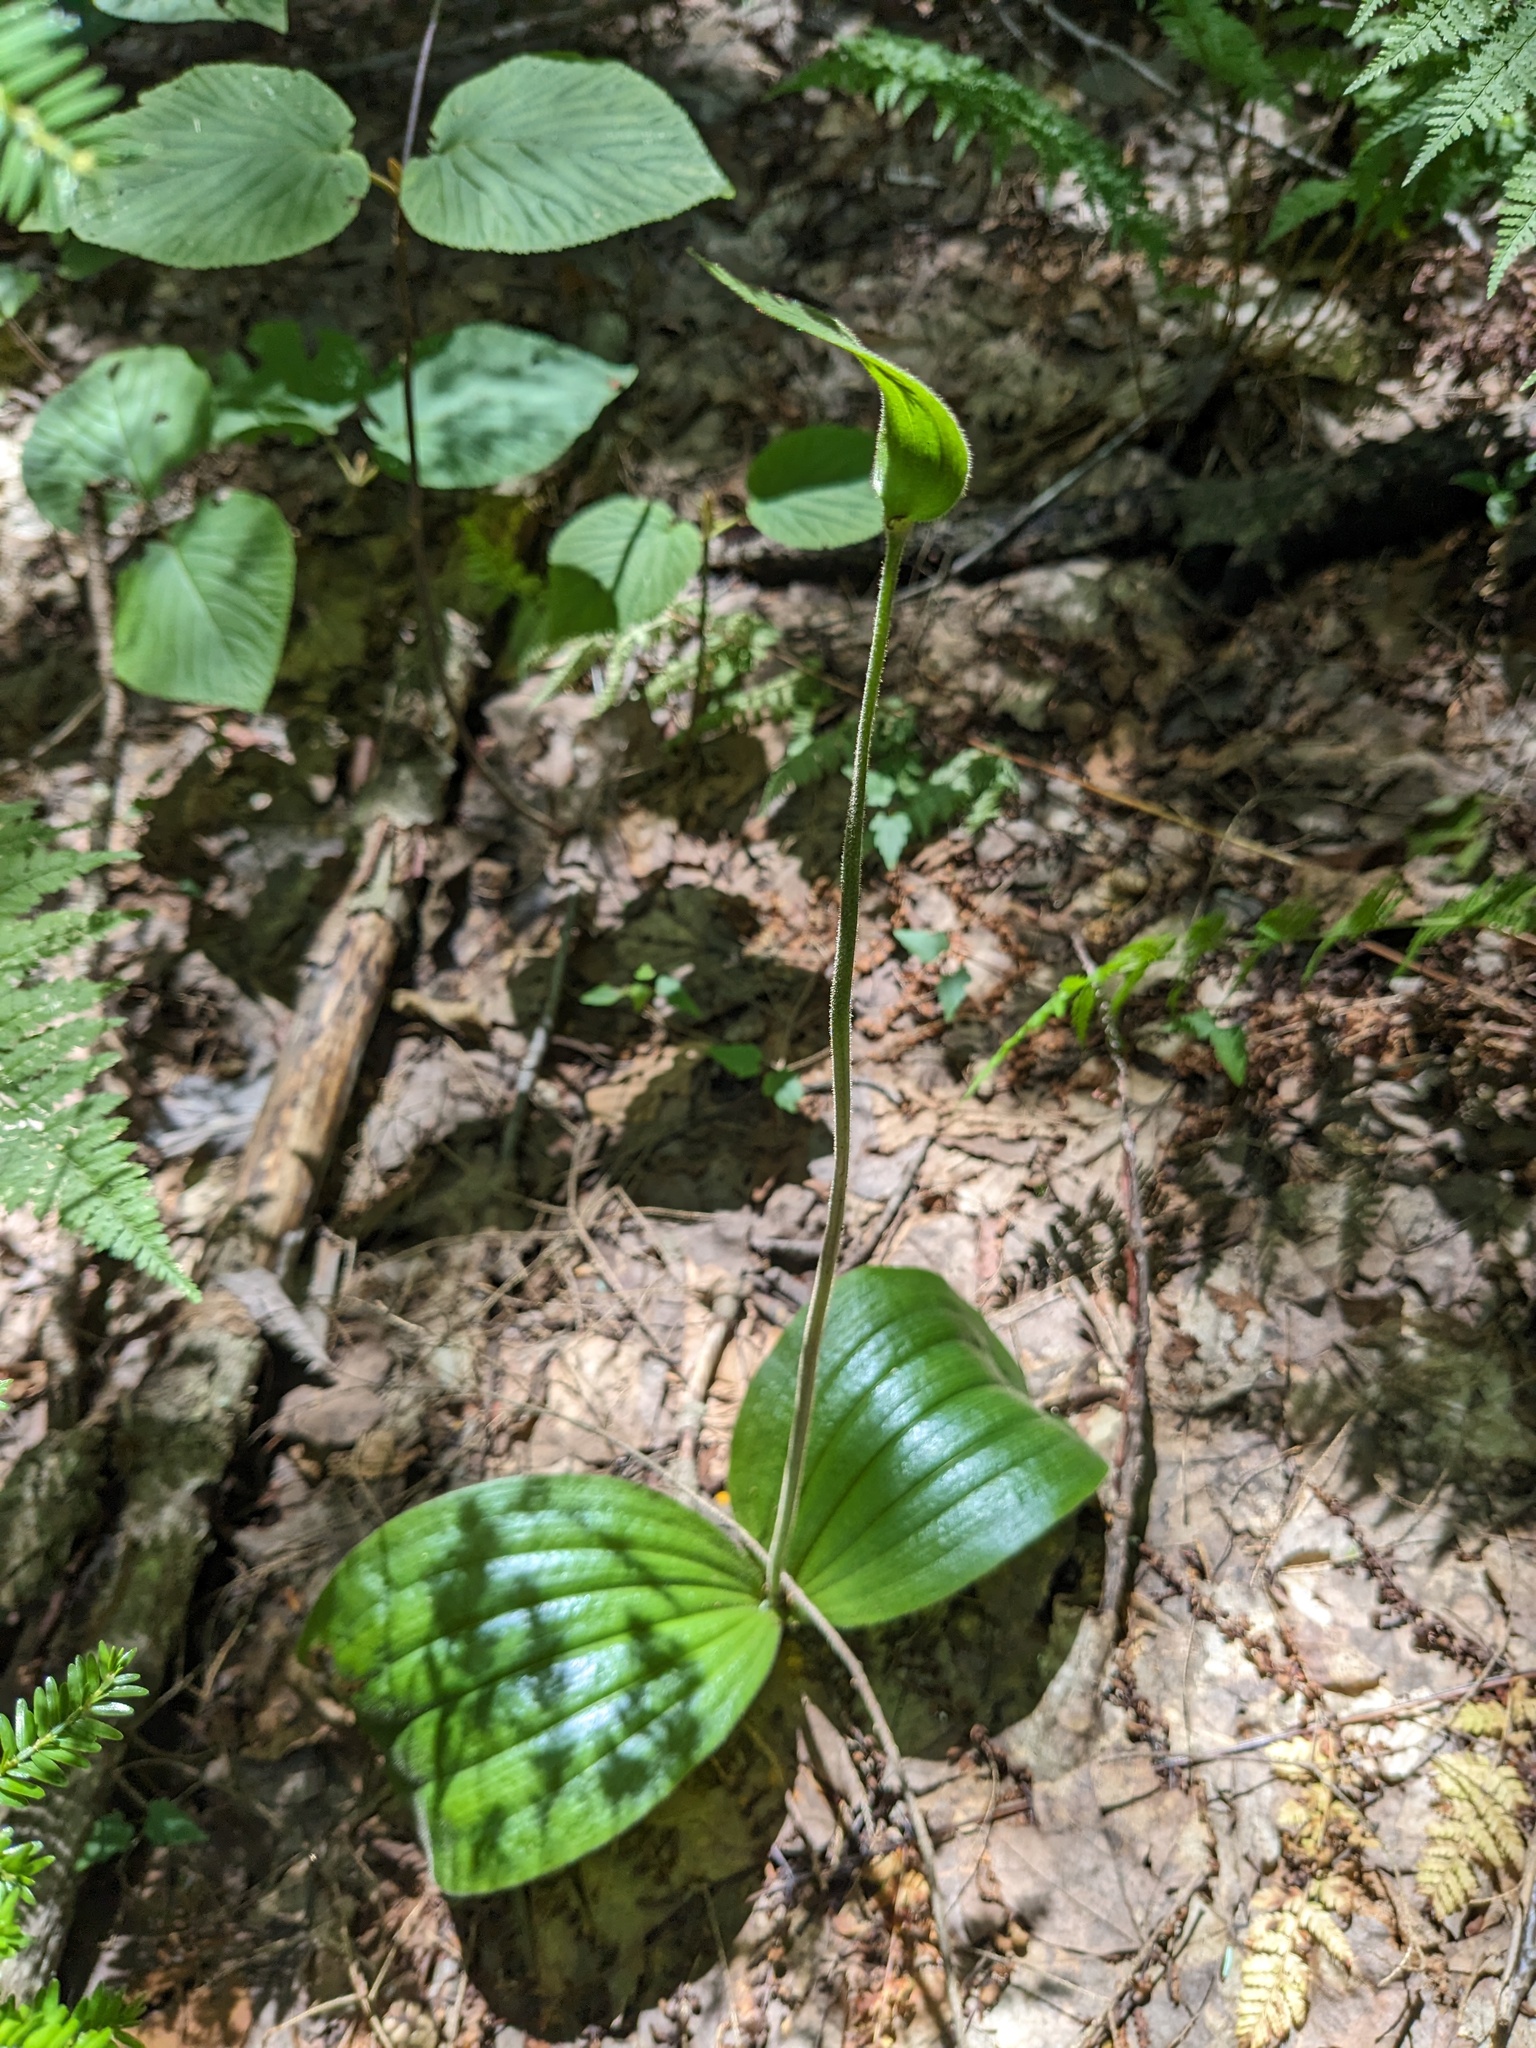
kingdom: Plantae
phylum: Tracheophyta
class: Liliopsida
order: Asparagales
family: Orchidaceae
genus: Cypripedium
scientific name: Cypripedium acaule
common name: Pink lady's-slipper
